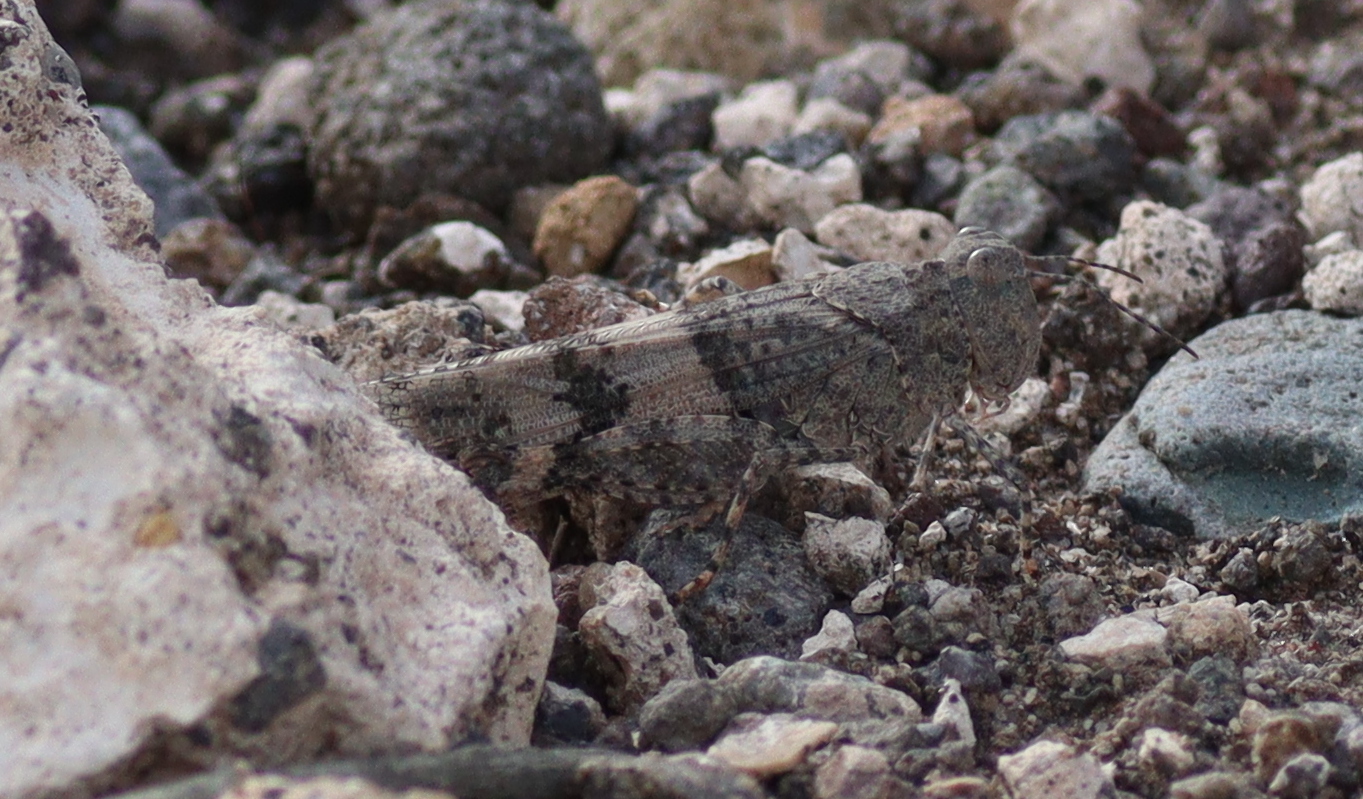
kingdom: Animalia
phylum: Arthropoda
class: Insecta
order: Orthoptera
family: Acrididae
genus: Trimerotropis
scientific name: Trimerotropis pallidipennis
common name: Pallid-winged grasshopper
